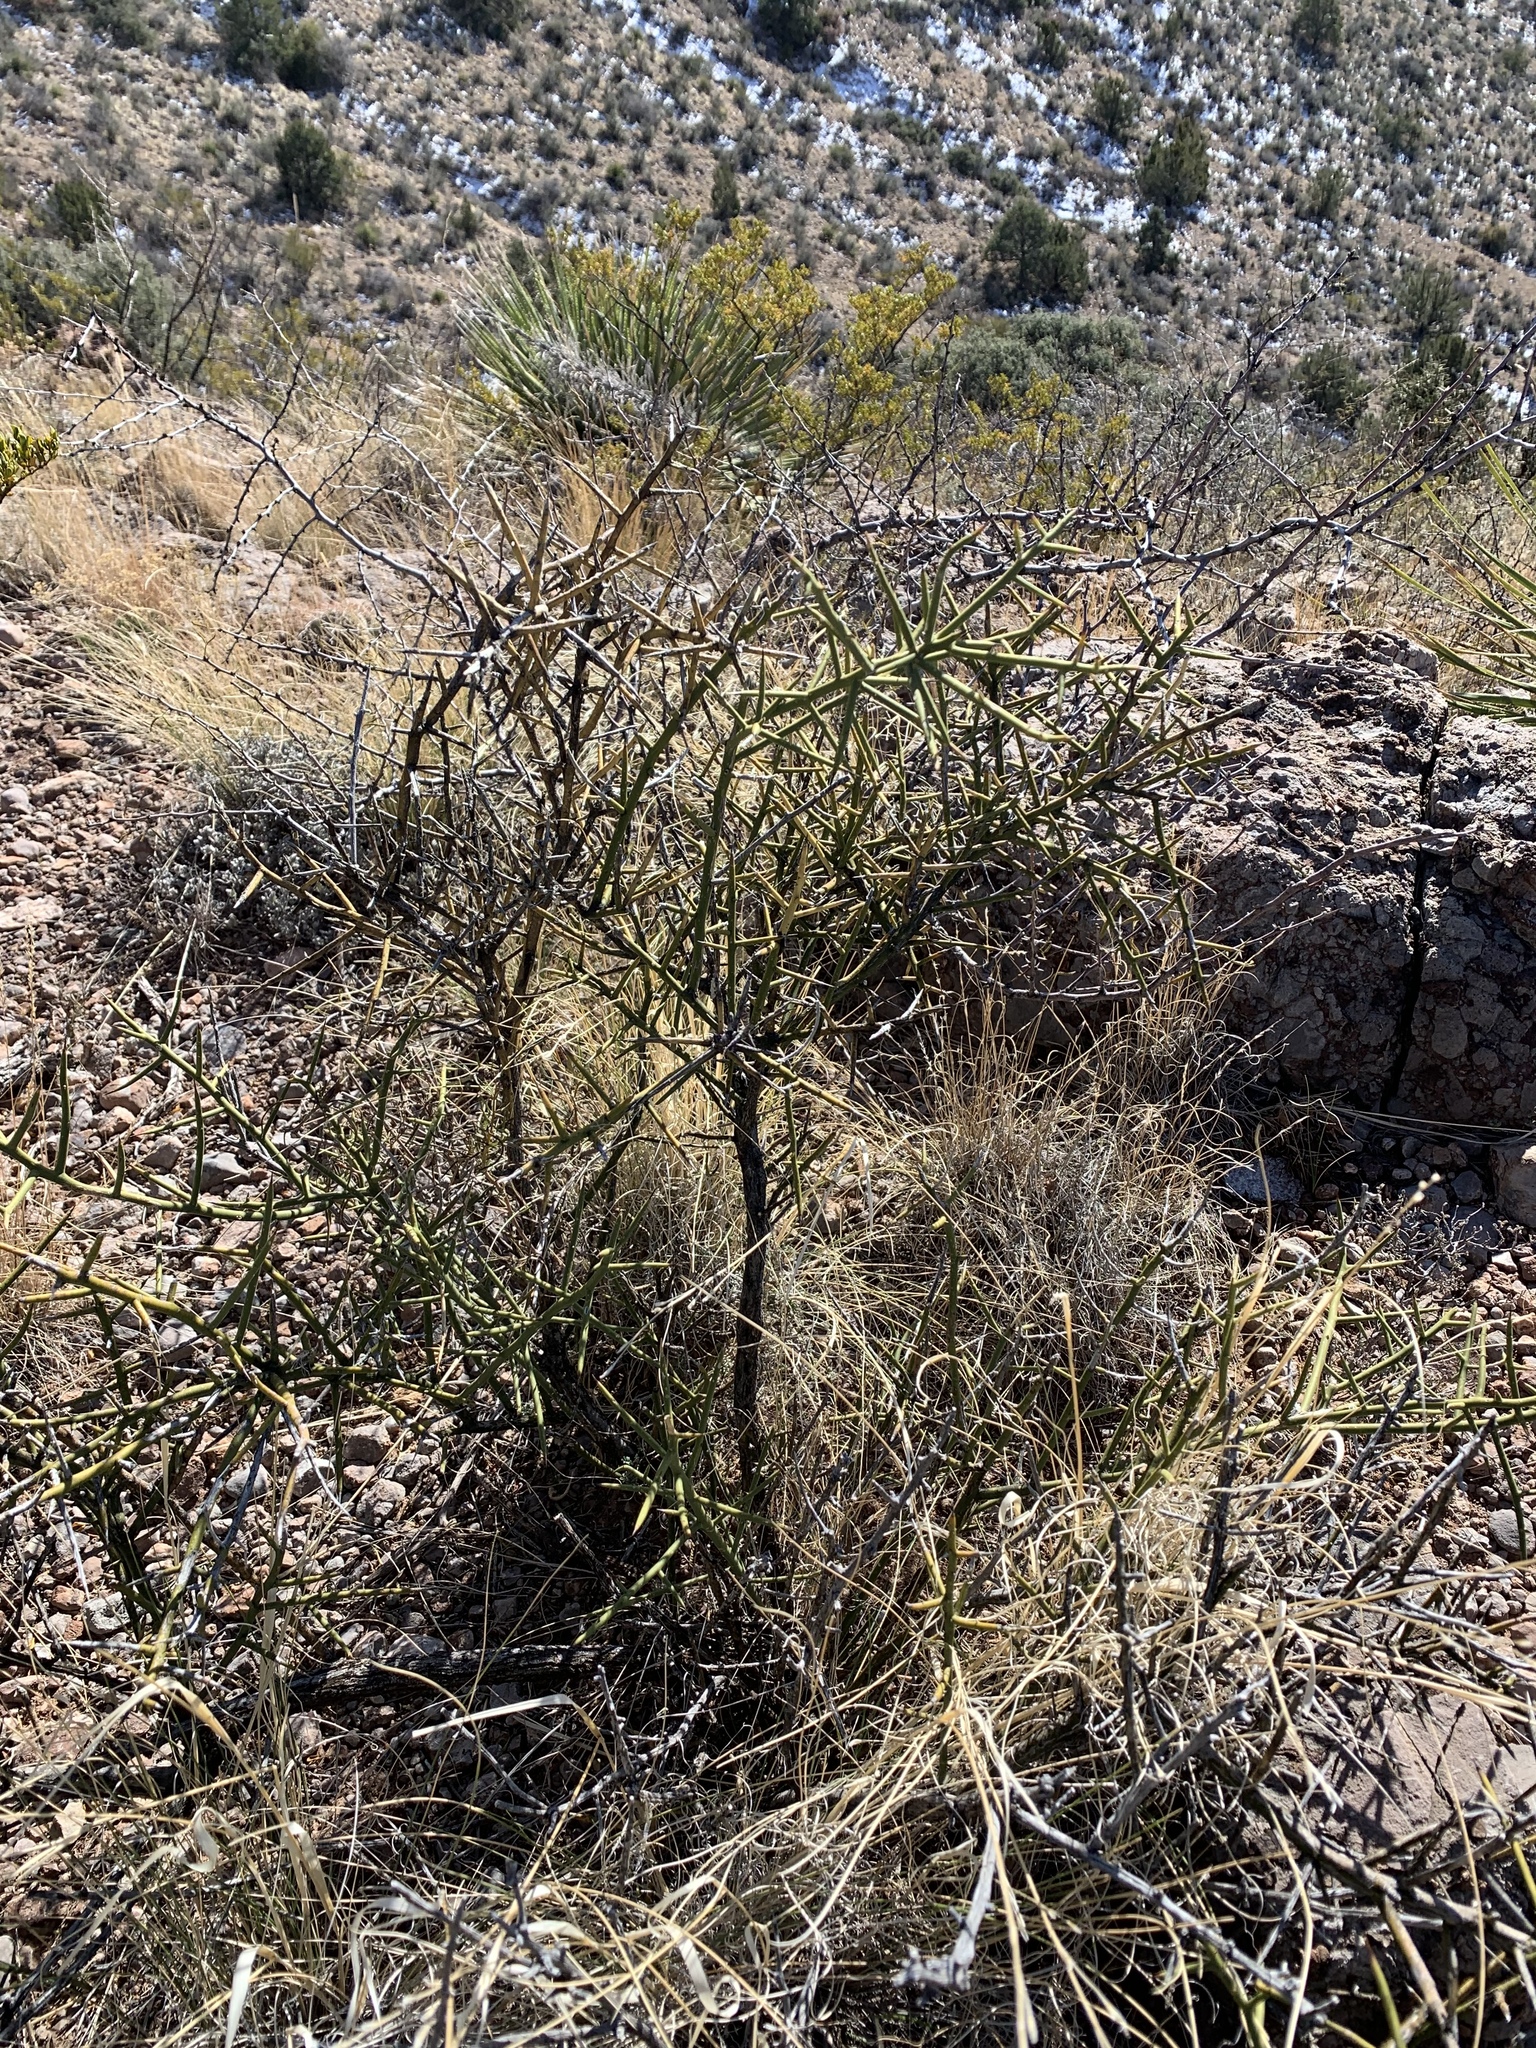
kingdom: Plantae
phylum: Tracheophyta
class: Magnoliopsida
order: Brassicales
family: Koeberliniaceae
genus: Koeberlinia
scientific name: Koeberlinia spinosa
